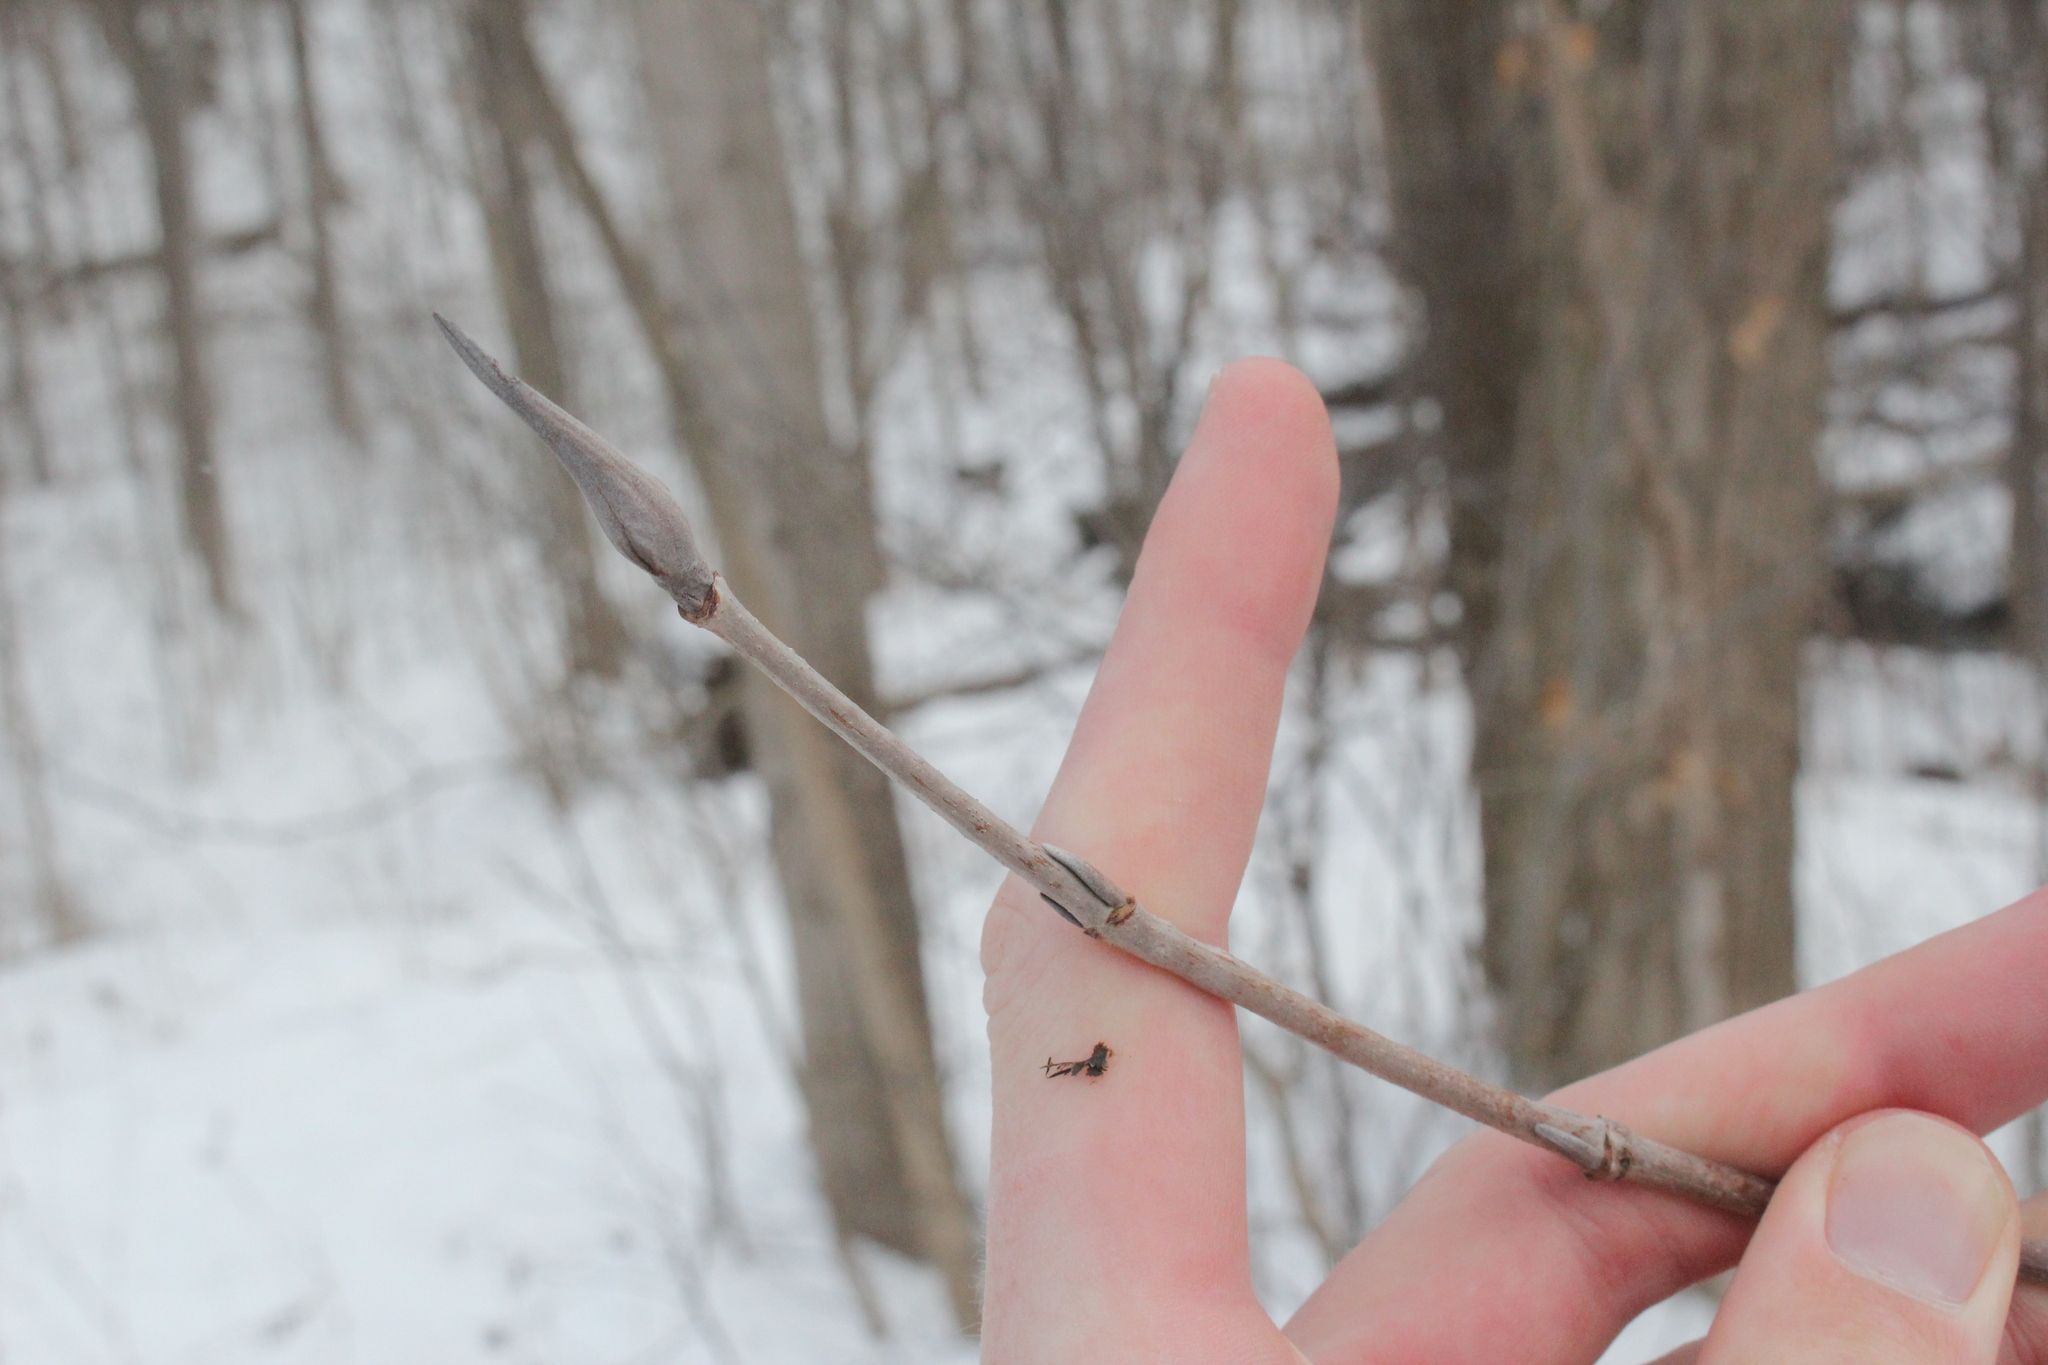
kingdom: Plantae
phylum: Tracheophyta
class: Magnoliopsida
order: Dipsacales
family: Viburnaceae
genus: Viburnum
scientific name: Viburnum lentago
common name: Black haw
